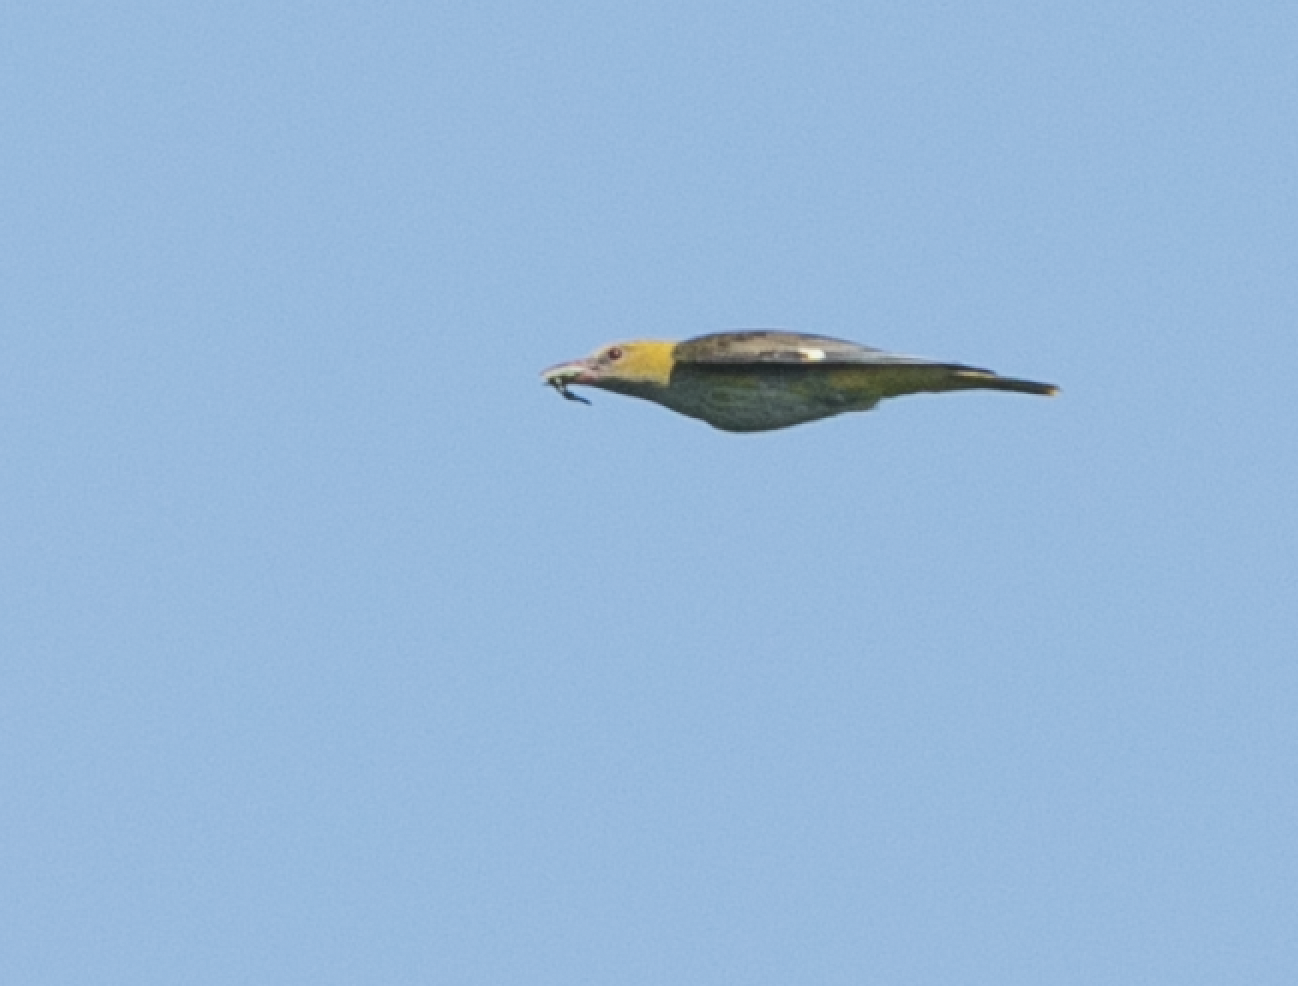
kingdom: Animalia
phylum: Chordata
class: Aves
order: Passeriformes
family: Oriolidae
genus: Oriolus
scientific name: Oriolus oriolus
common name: Eurasian golden oriole
